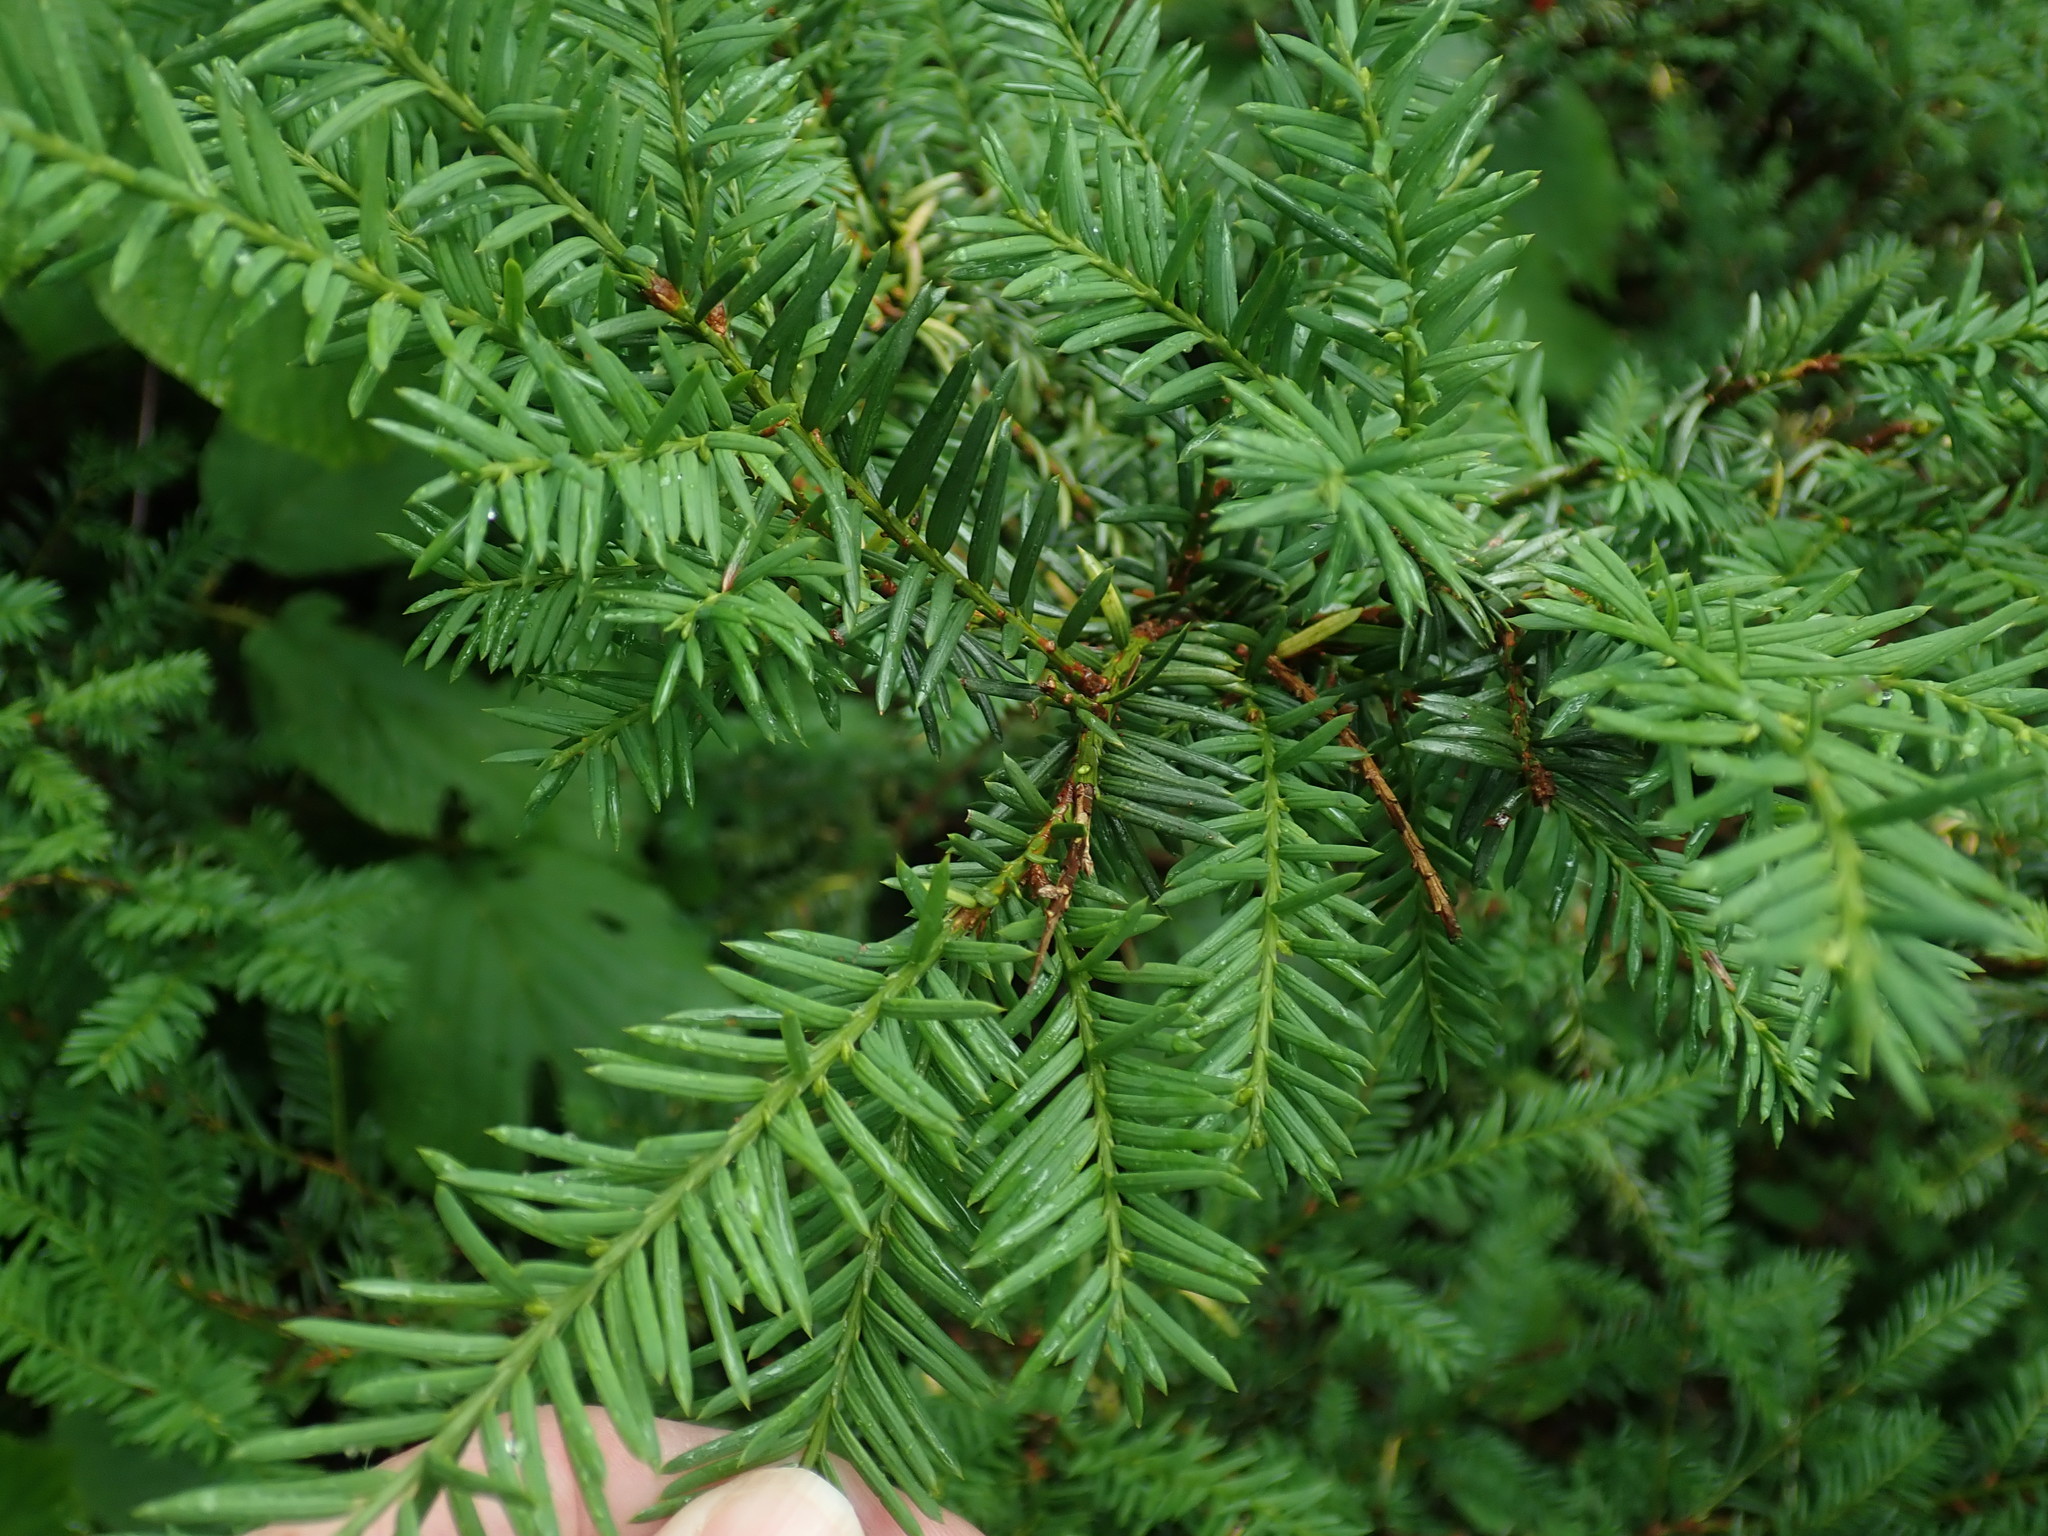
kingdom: Plantae
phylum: Tracheophyta
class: Pinopsida
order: Pinales
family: Taxaceae
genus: Taxus
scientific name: Taxus canadensis
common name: American yew
